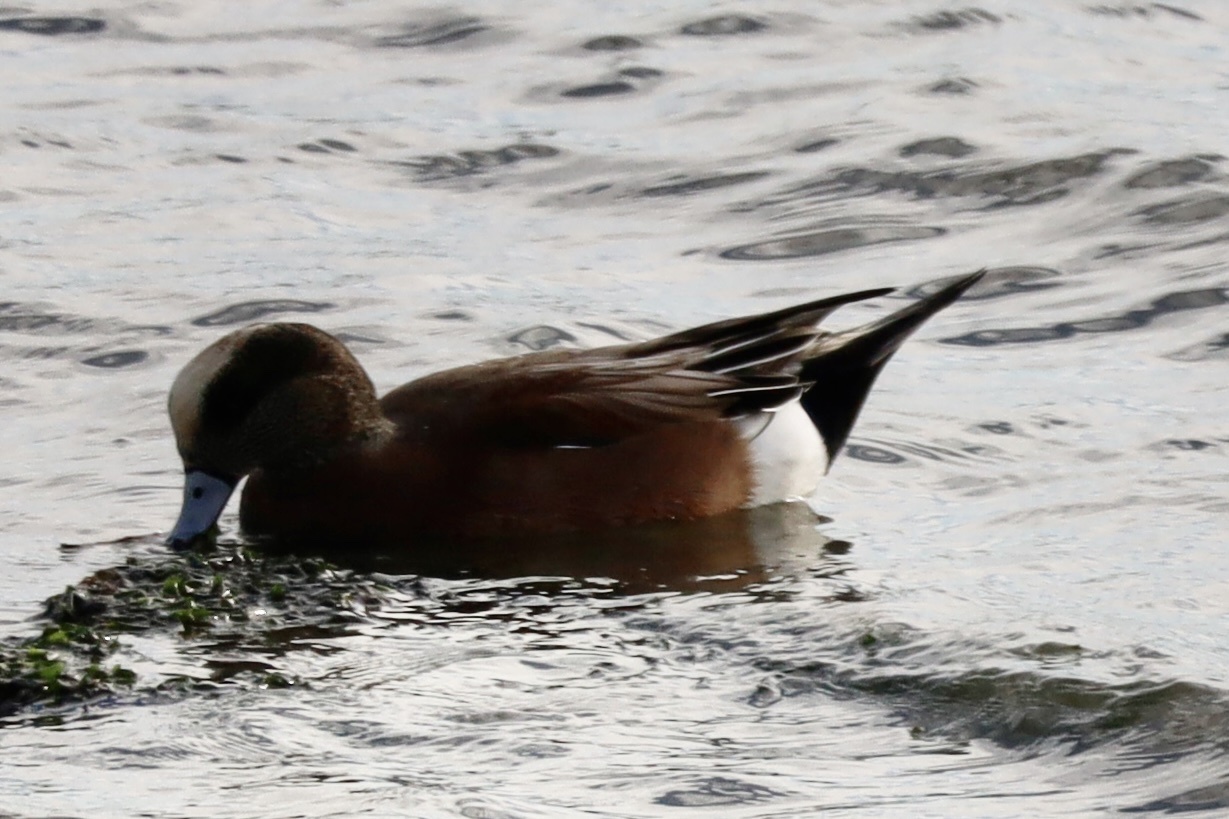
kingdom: Animalia
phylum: Chordata
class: Aves
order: Anseriformes
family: Anatidae
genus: Mareca
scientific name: Mareca americana
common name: American wigeon
